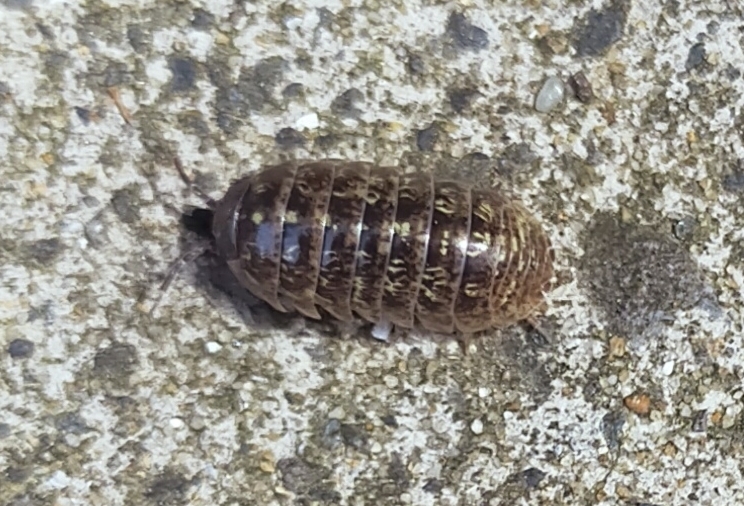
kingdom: Animalia
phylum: Arthropoda
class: Malacostraca
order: Isopoda
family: Armadillidiidae
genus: Armadillidium
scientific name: Armadillidium vulgare
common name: Common pill woodlouse
